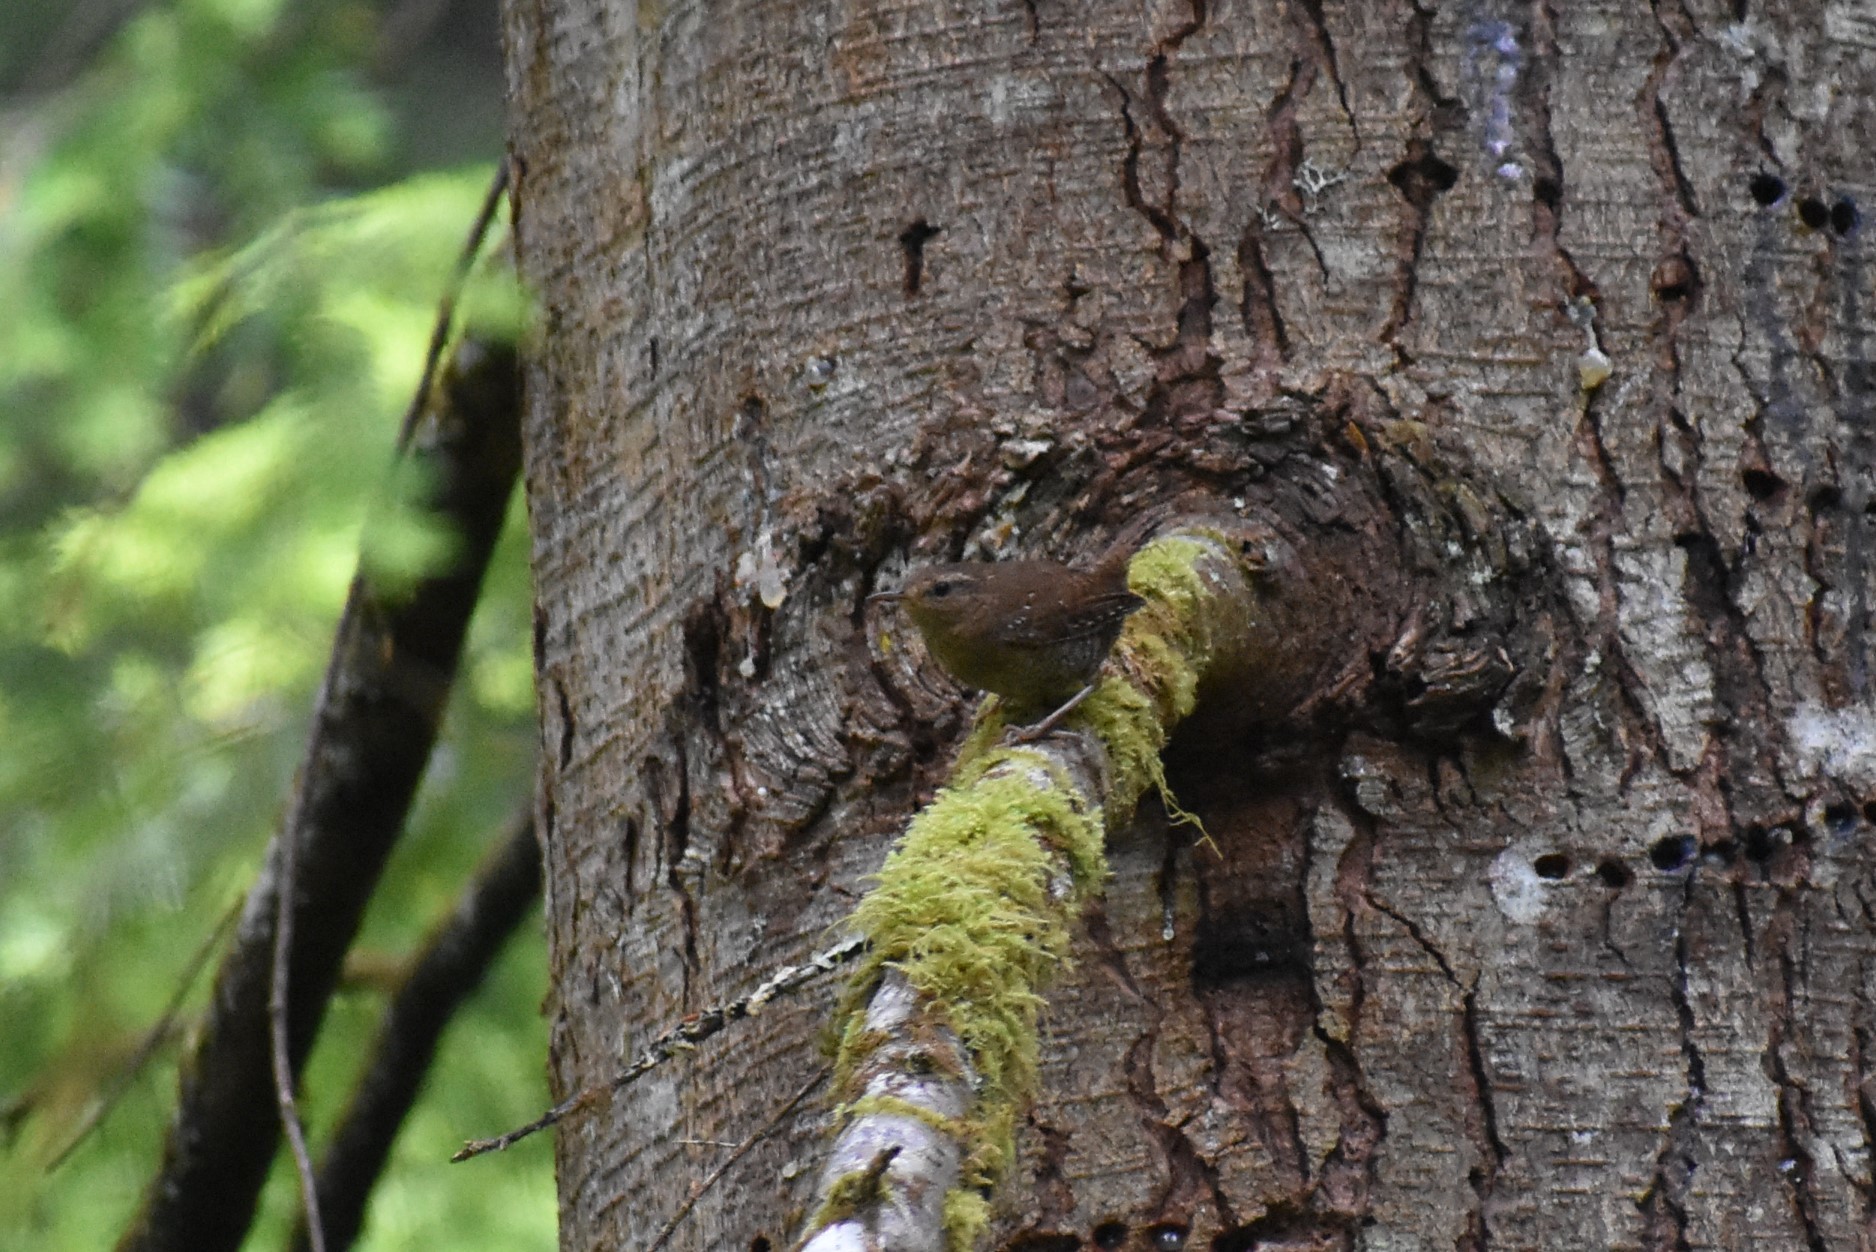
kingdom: Animalia
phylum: Chordata
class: Aves
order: Passeriformes
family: Troglodytidae
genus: Troglodytes
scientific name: Troglodytes pacificus
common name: Pacific wren
